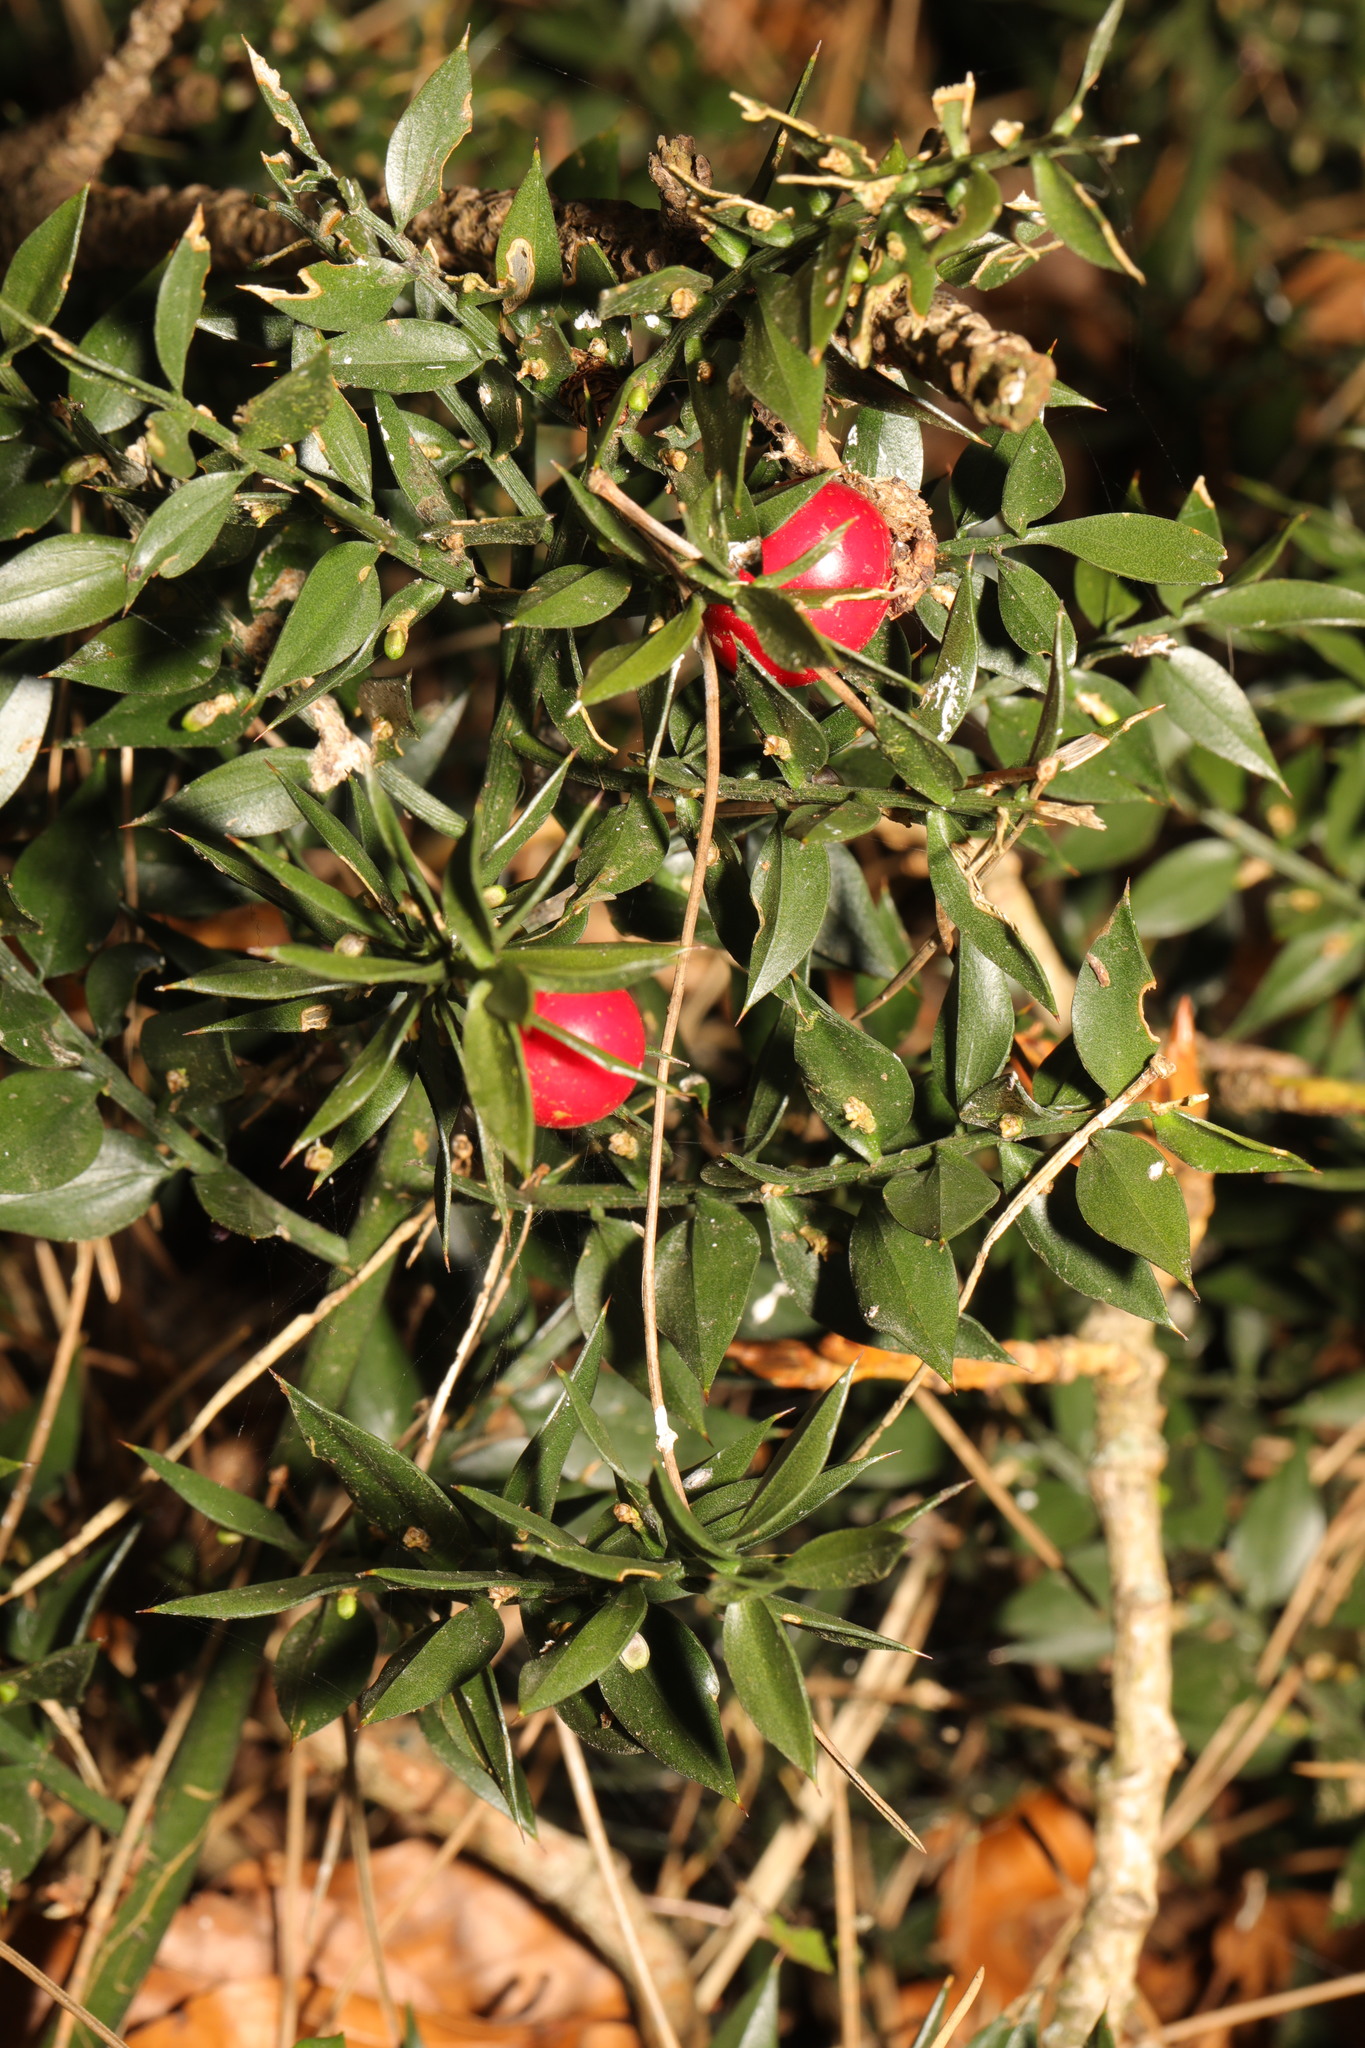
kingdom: Plantae
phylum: Tracheophyta
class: Liliopsida
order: Asparagales
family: Asparagaceae
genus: Ruscus
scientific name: Ruscus aculeatus
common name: Butcher's-broom
